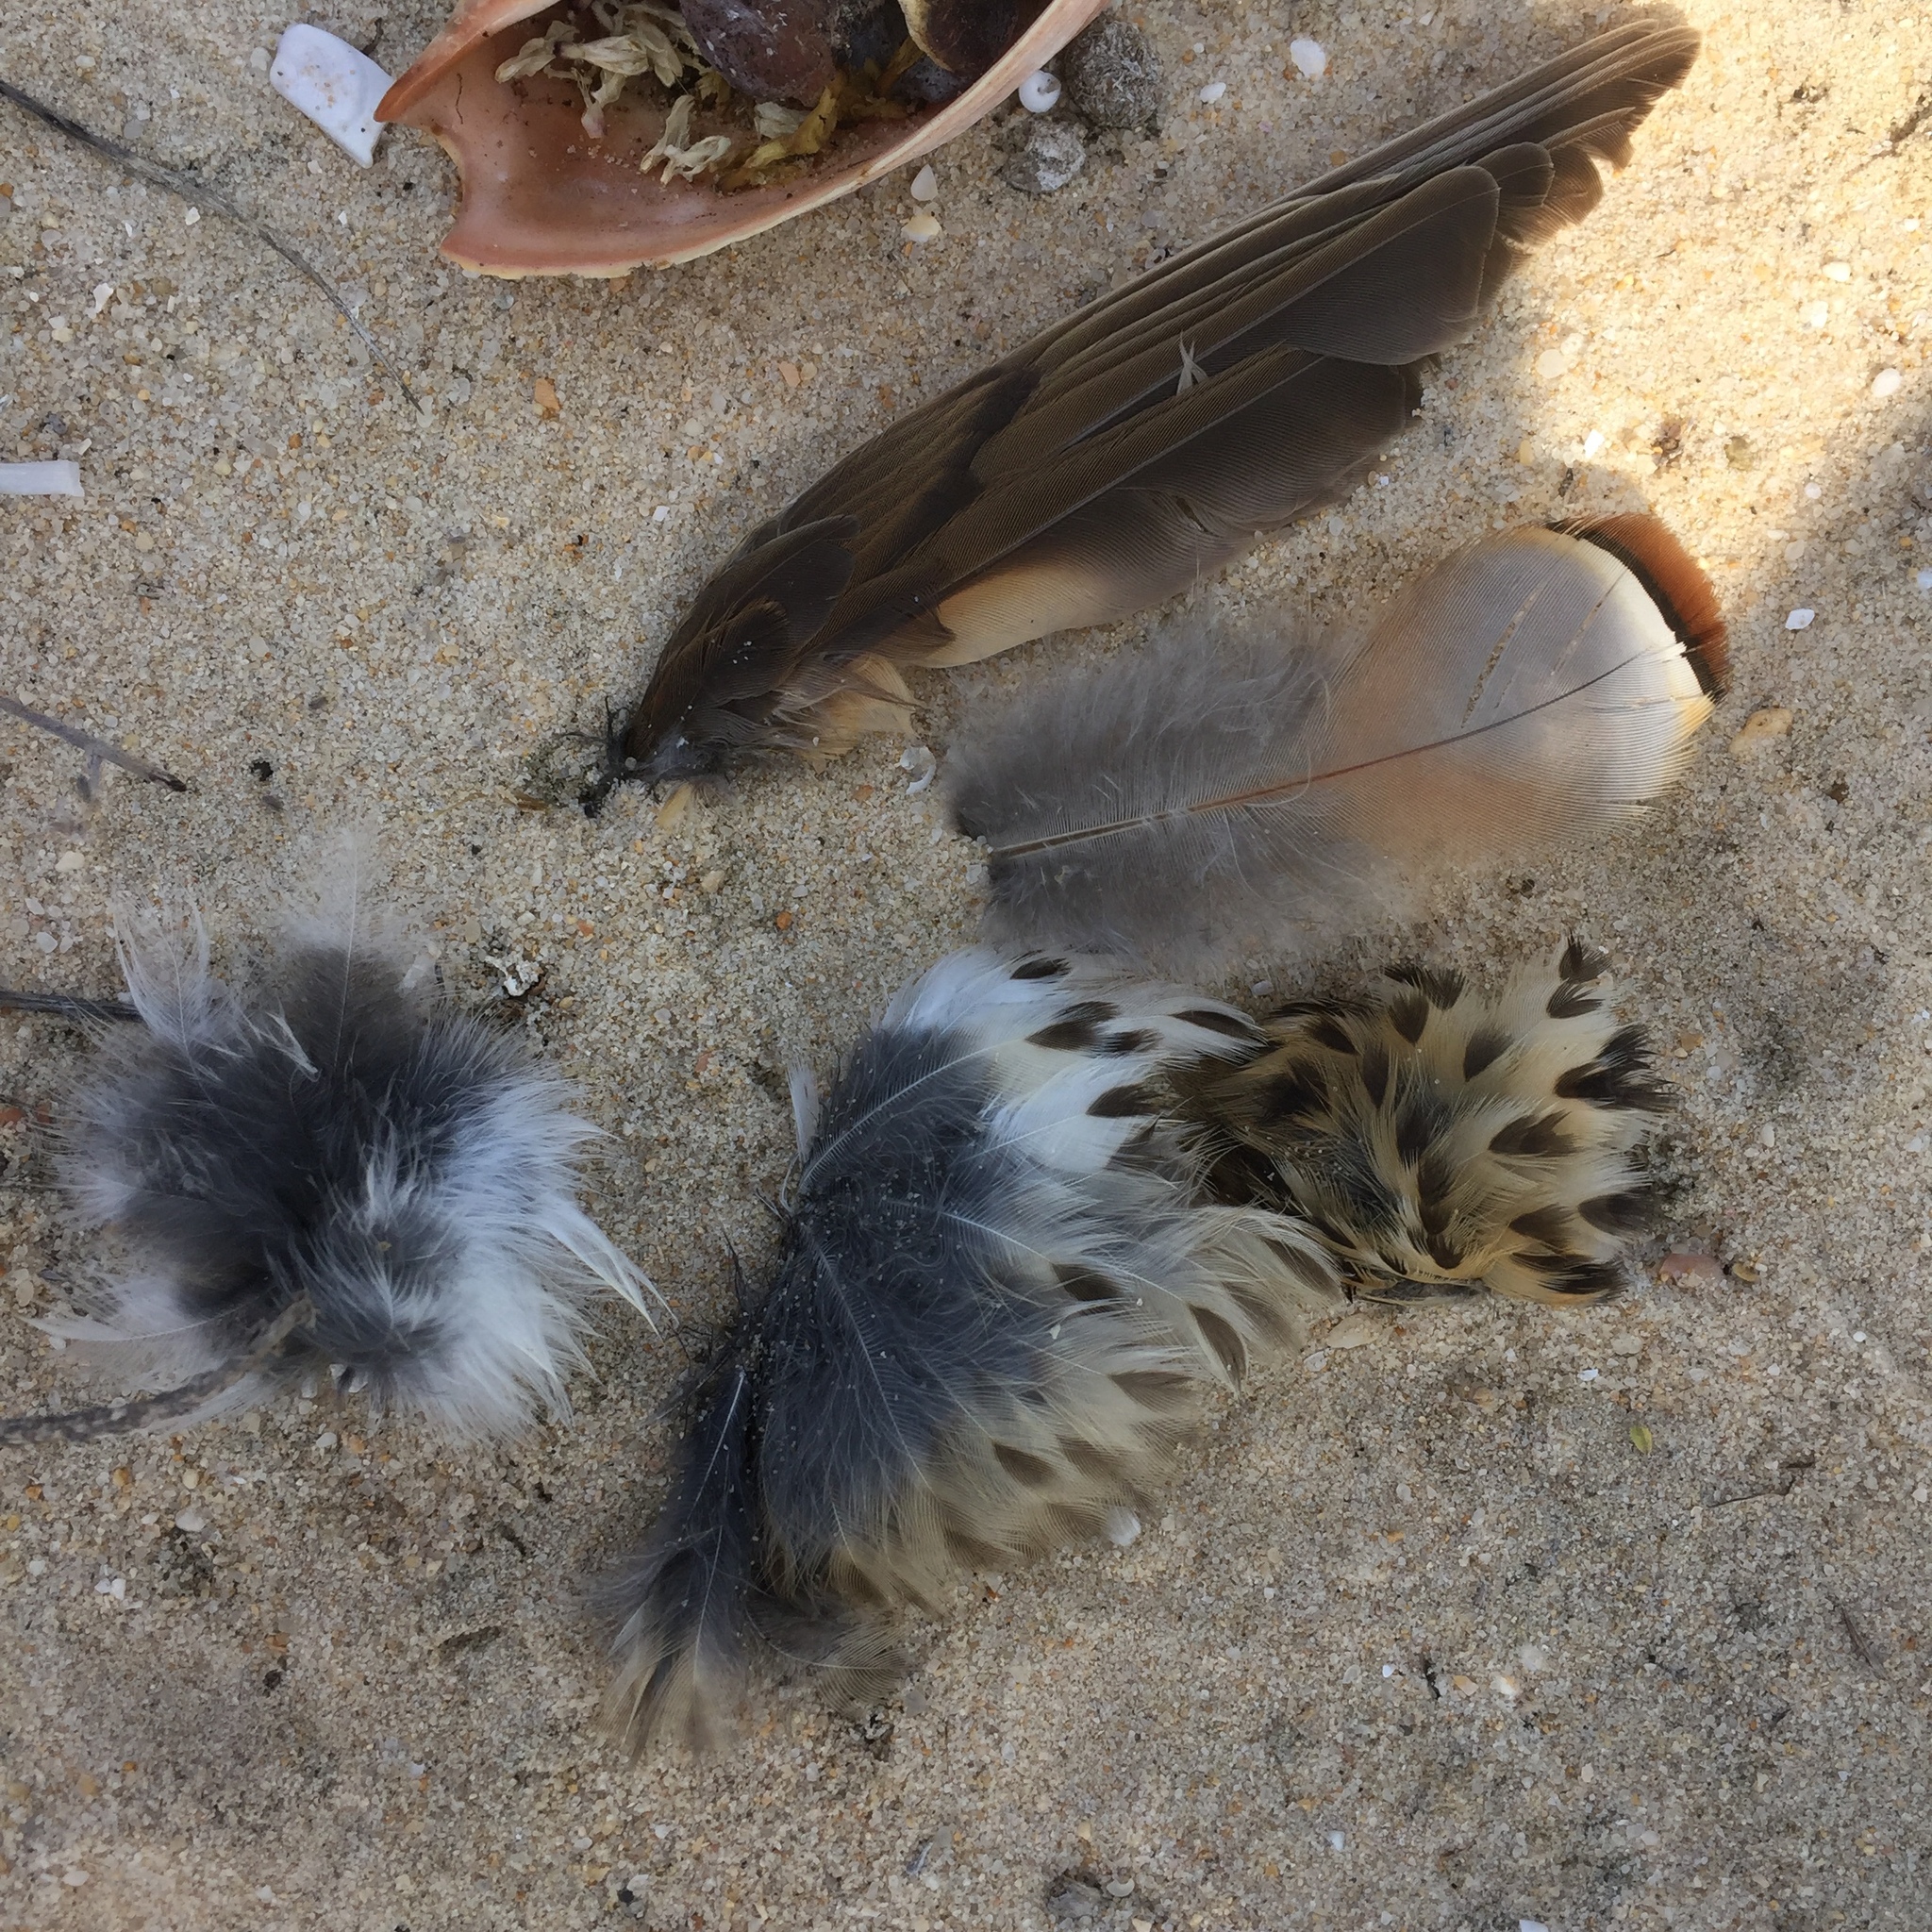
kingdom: Animalia
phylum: Chordata
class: Aves
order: Galliformes
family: Phasianidae
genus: Alectoris
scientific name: Alectoris rufa
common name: Red-legged partridge
